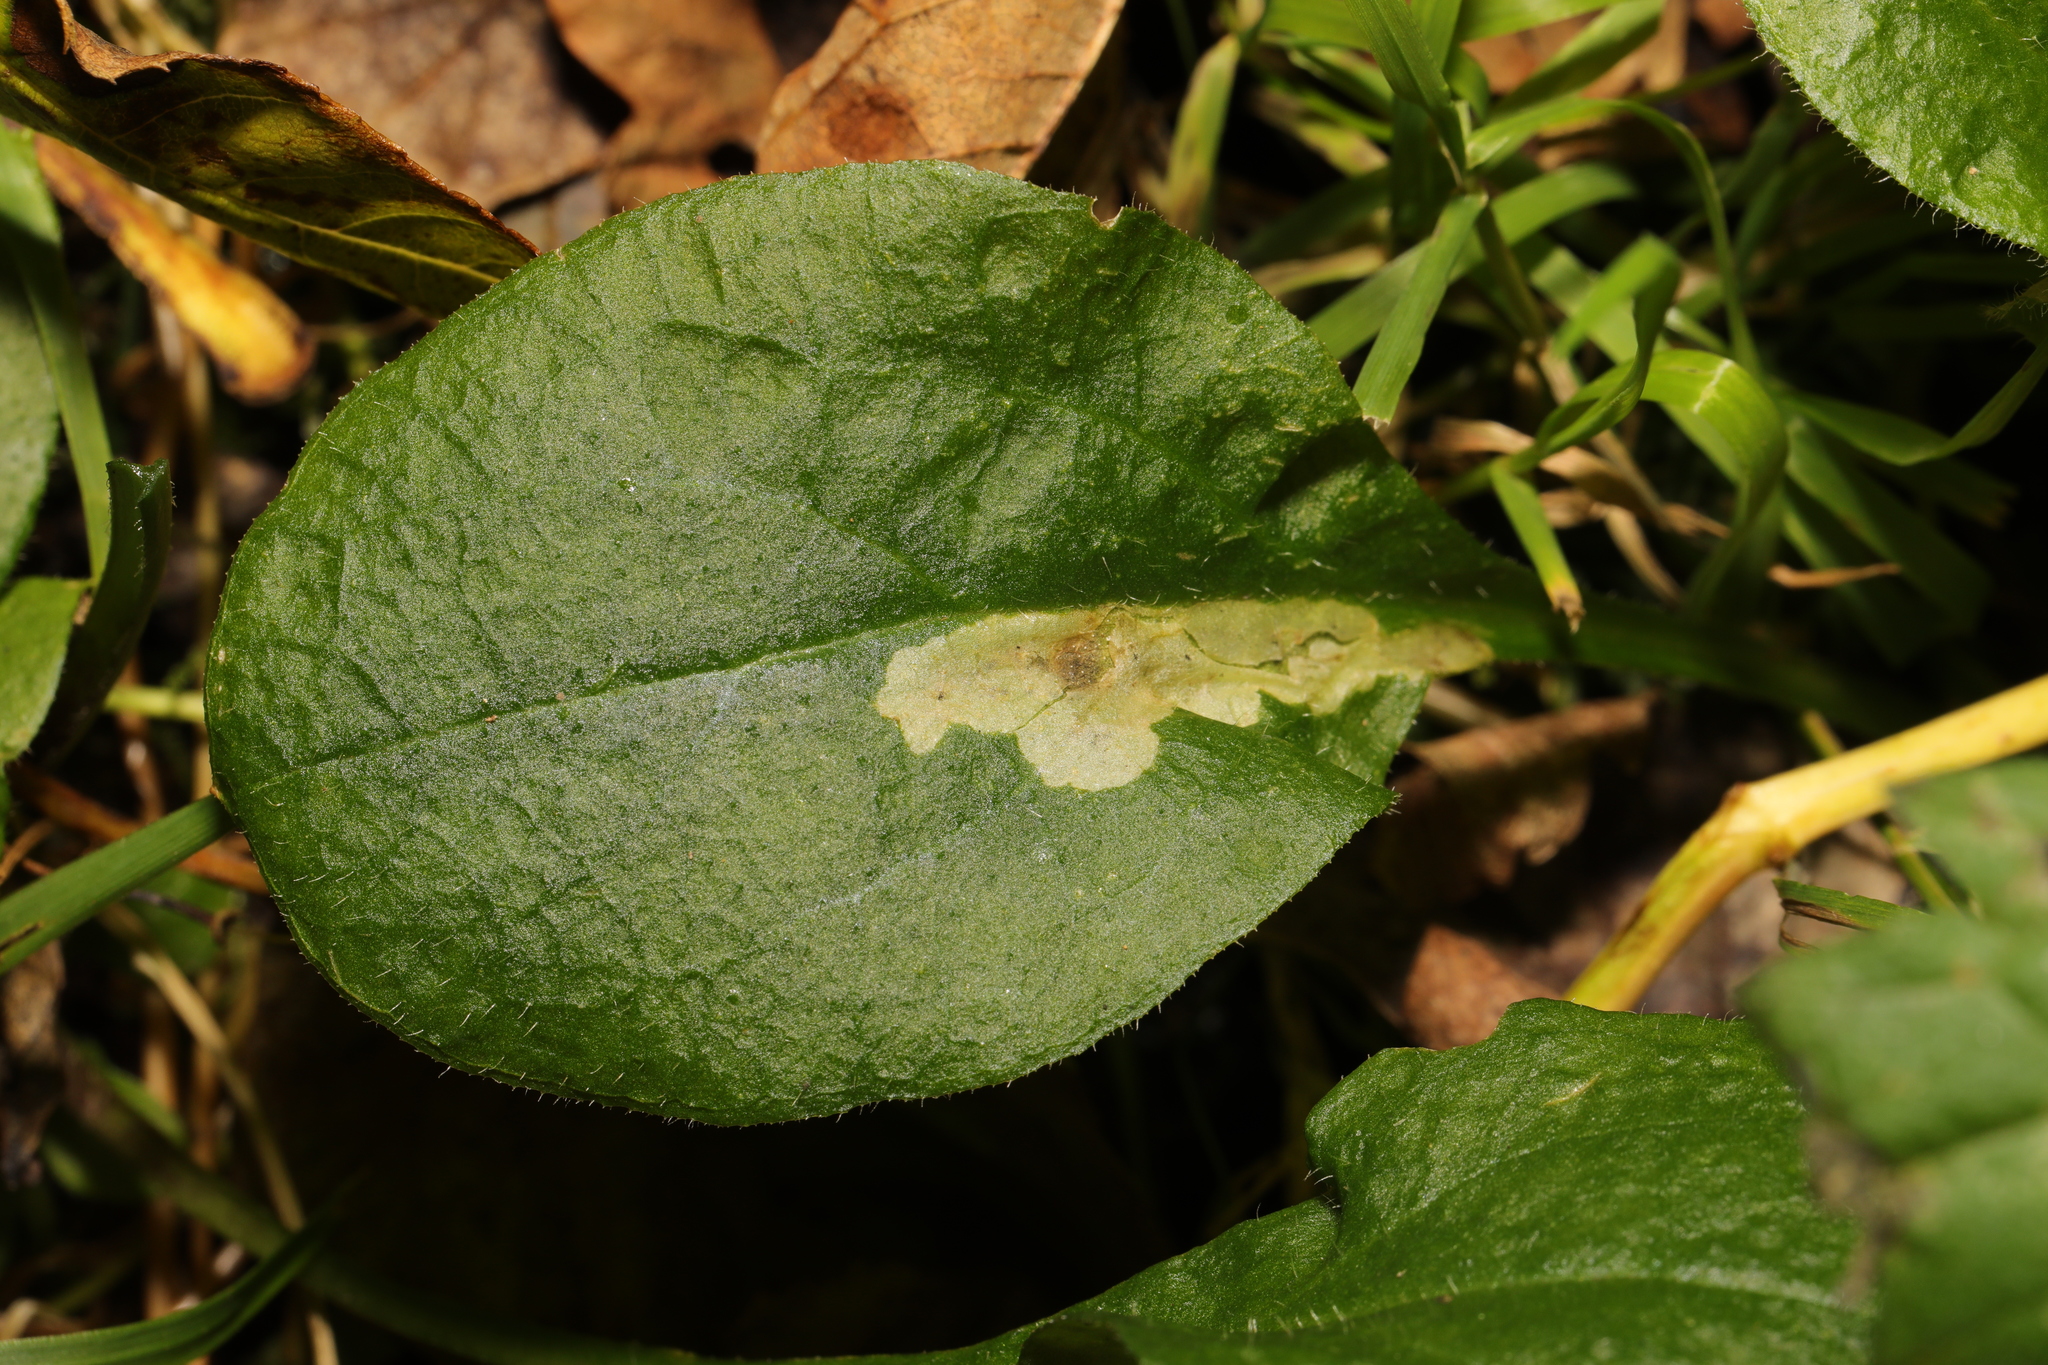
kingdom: Animalia
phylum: Arthropoda
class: Insecta
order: Diptera
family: Agromyzidae
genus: Amauromyza
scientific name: Amauromyza flavifrons
